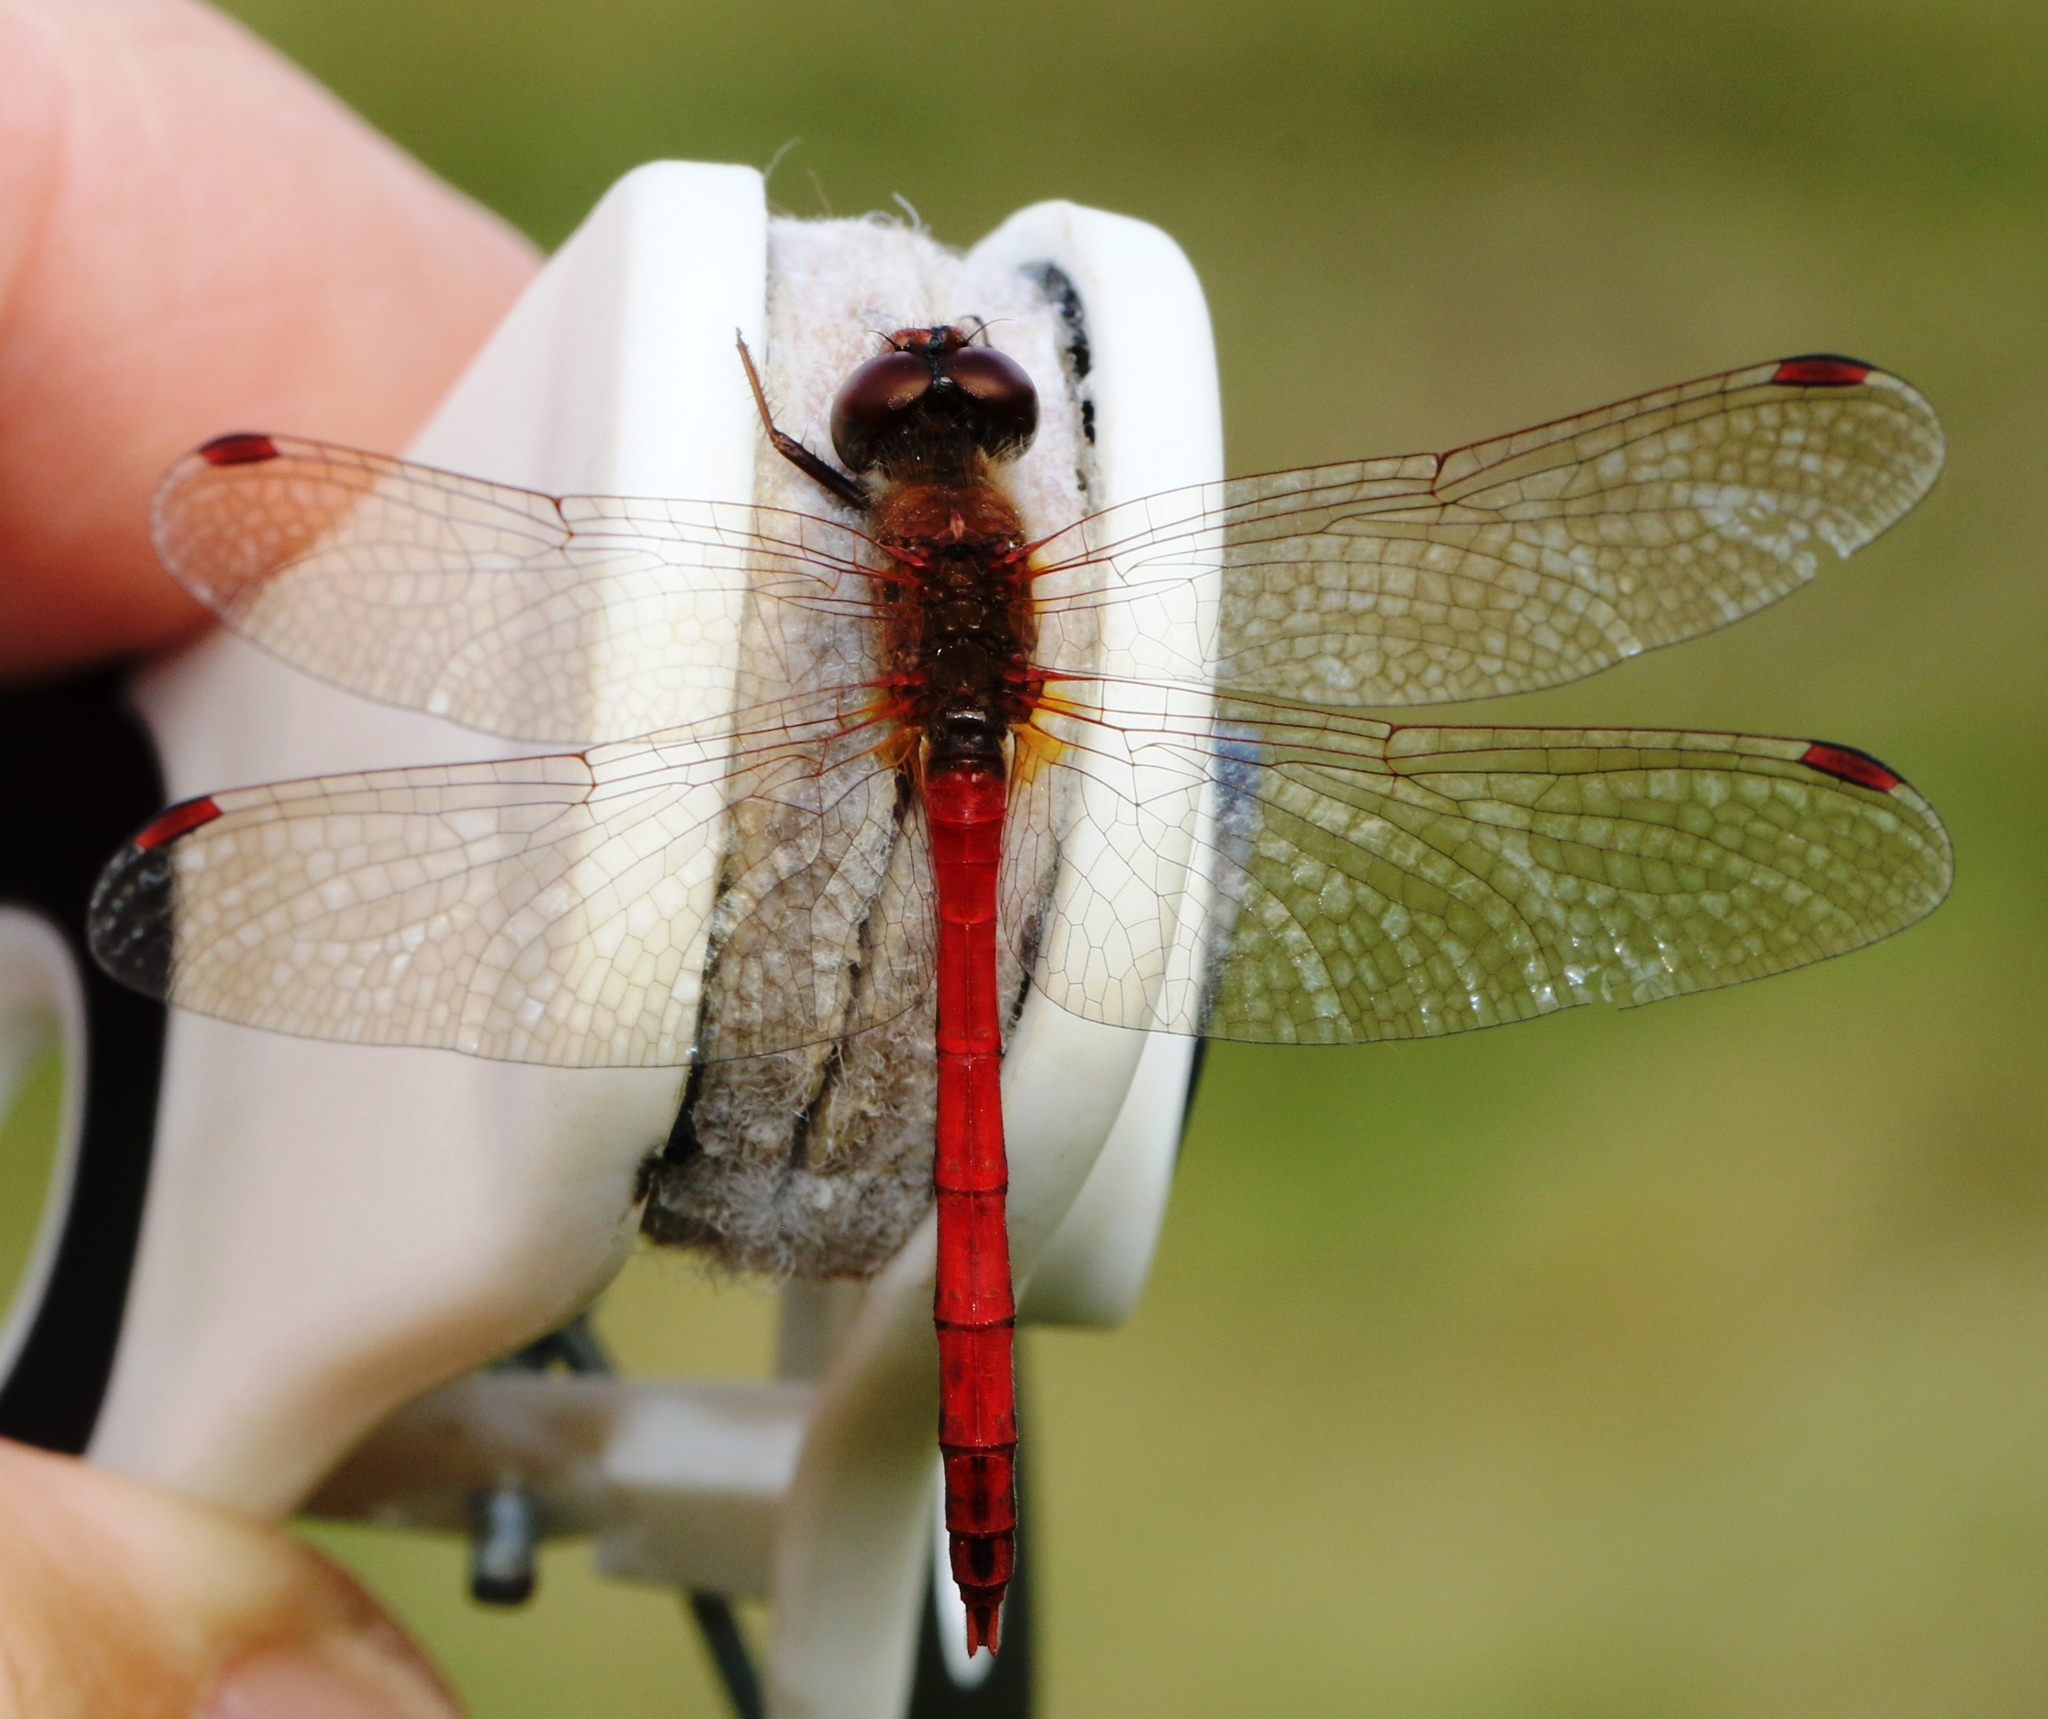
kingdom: Animalia
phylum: Arthropoda
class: Insecta
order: Odonata
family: Libellulidae
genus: Sympetrum
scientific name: Sympetrum vicinum
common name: Autumn meadowhawk
